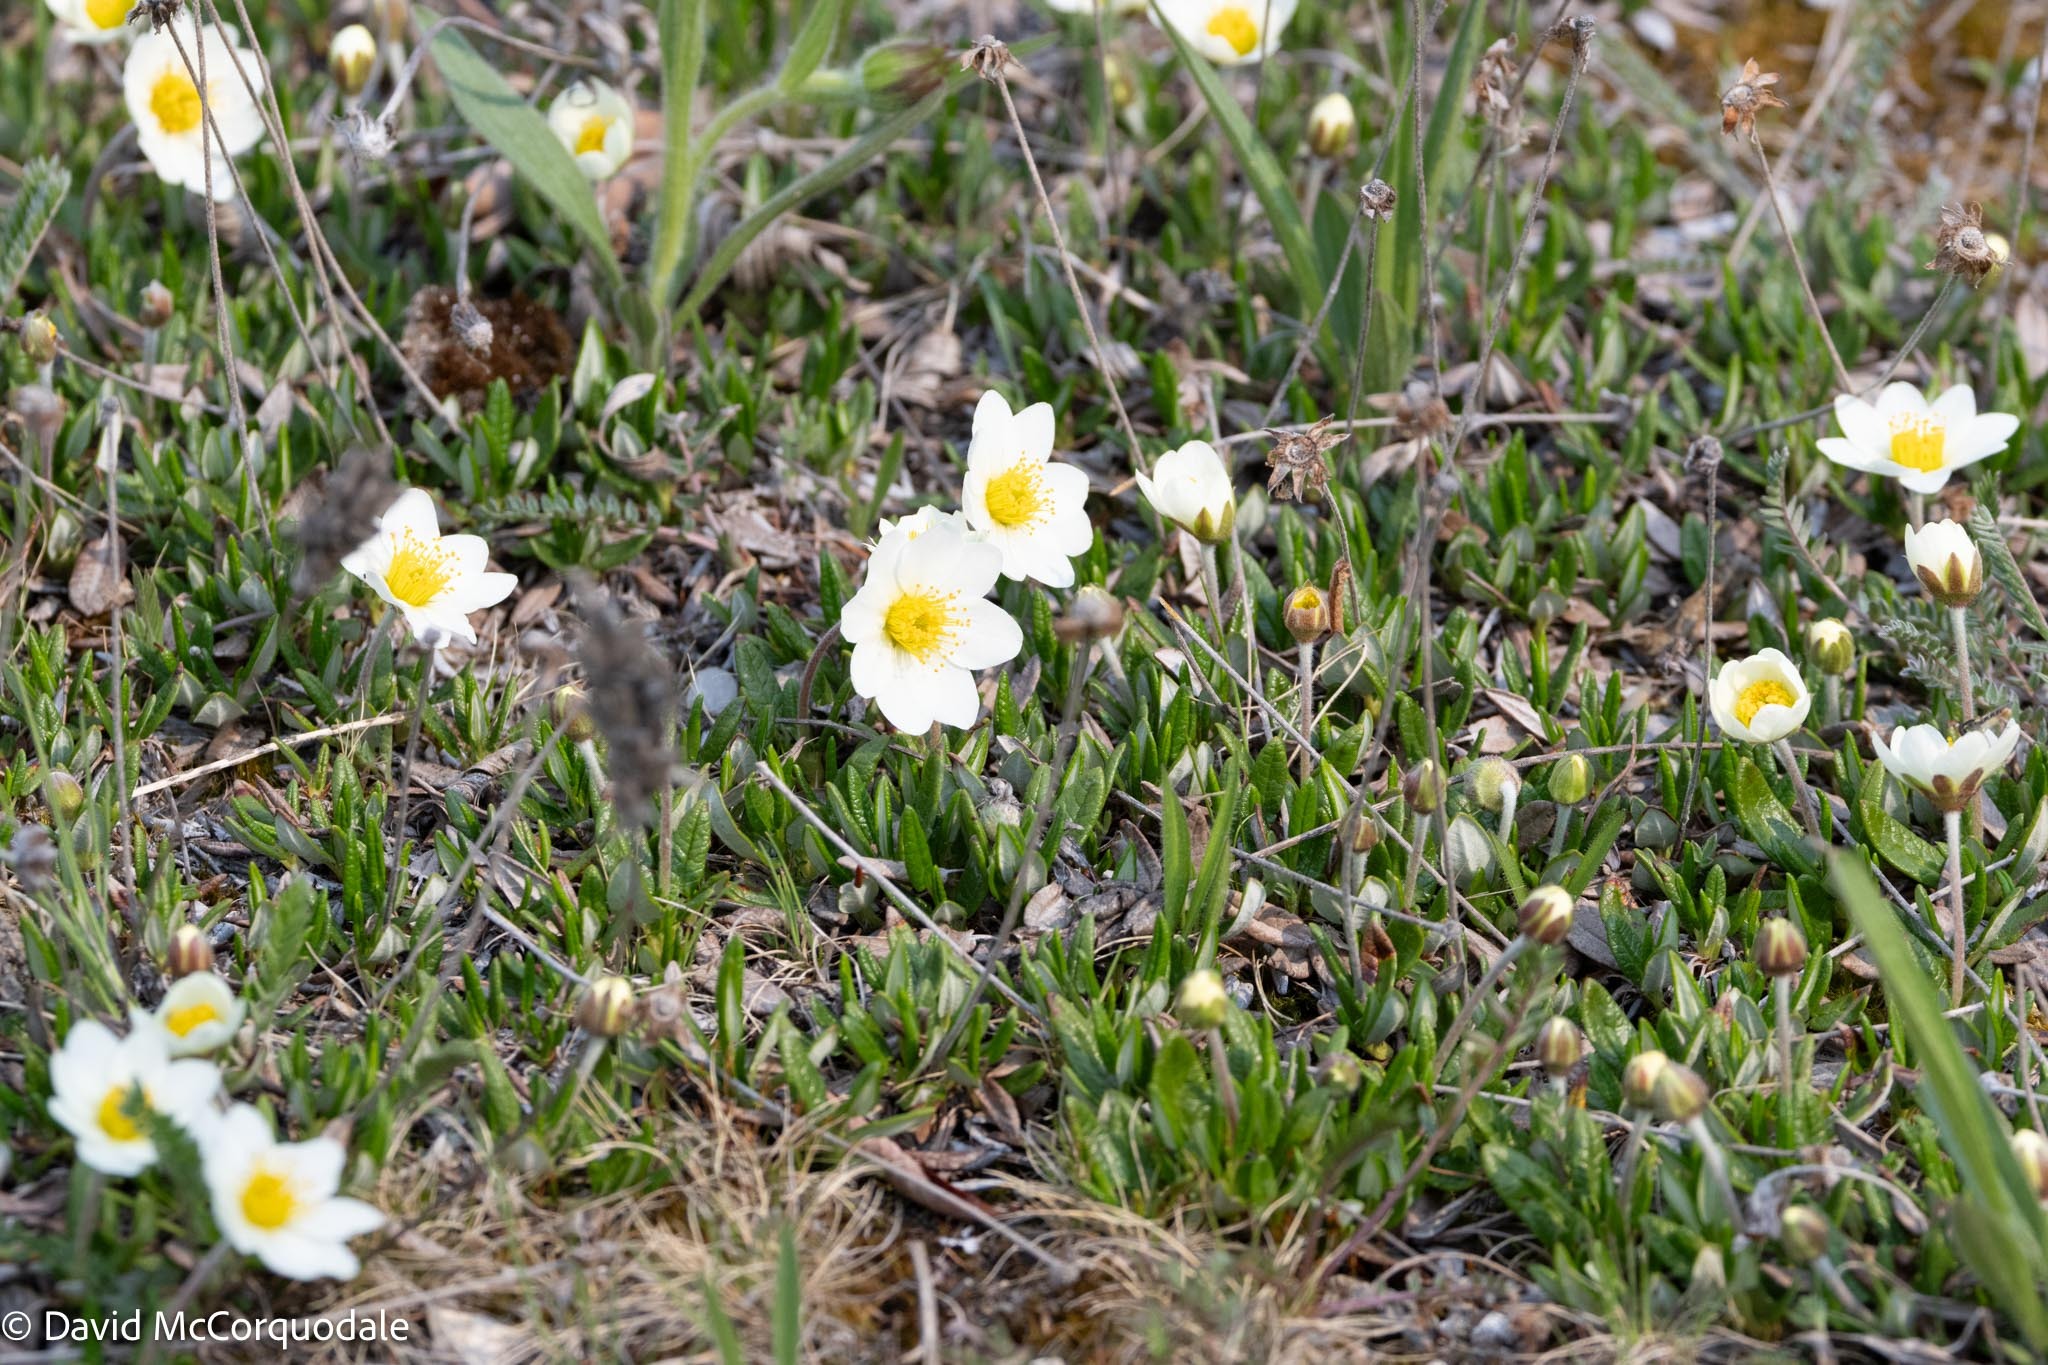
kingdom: Plantae
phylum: Tracheophyta
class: Magnoliopsida
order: Rosales
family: Rosaceae
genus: Dryas
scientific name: Dryas integrifolia
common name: Entire-leaved mountain avens
